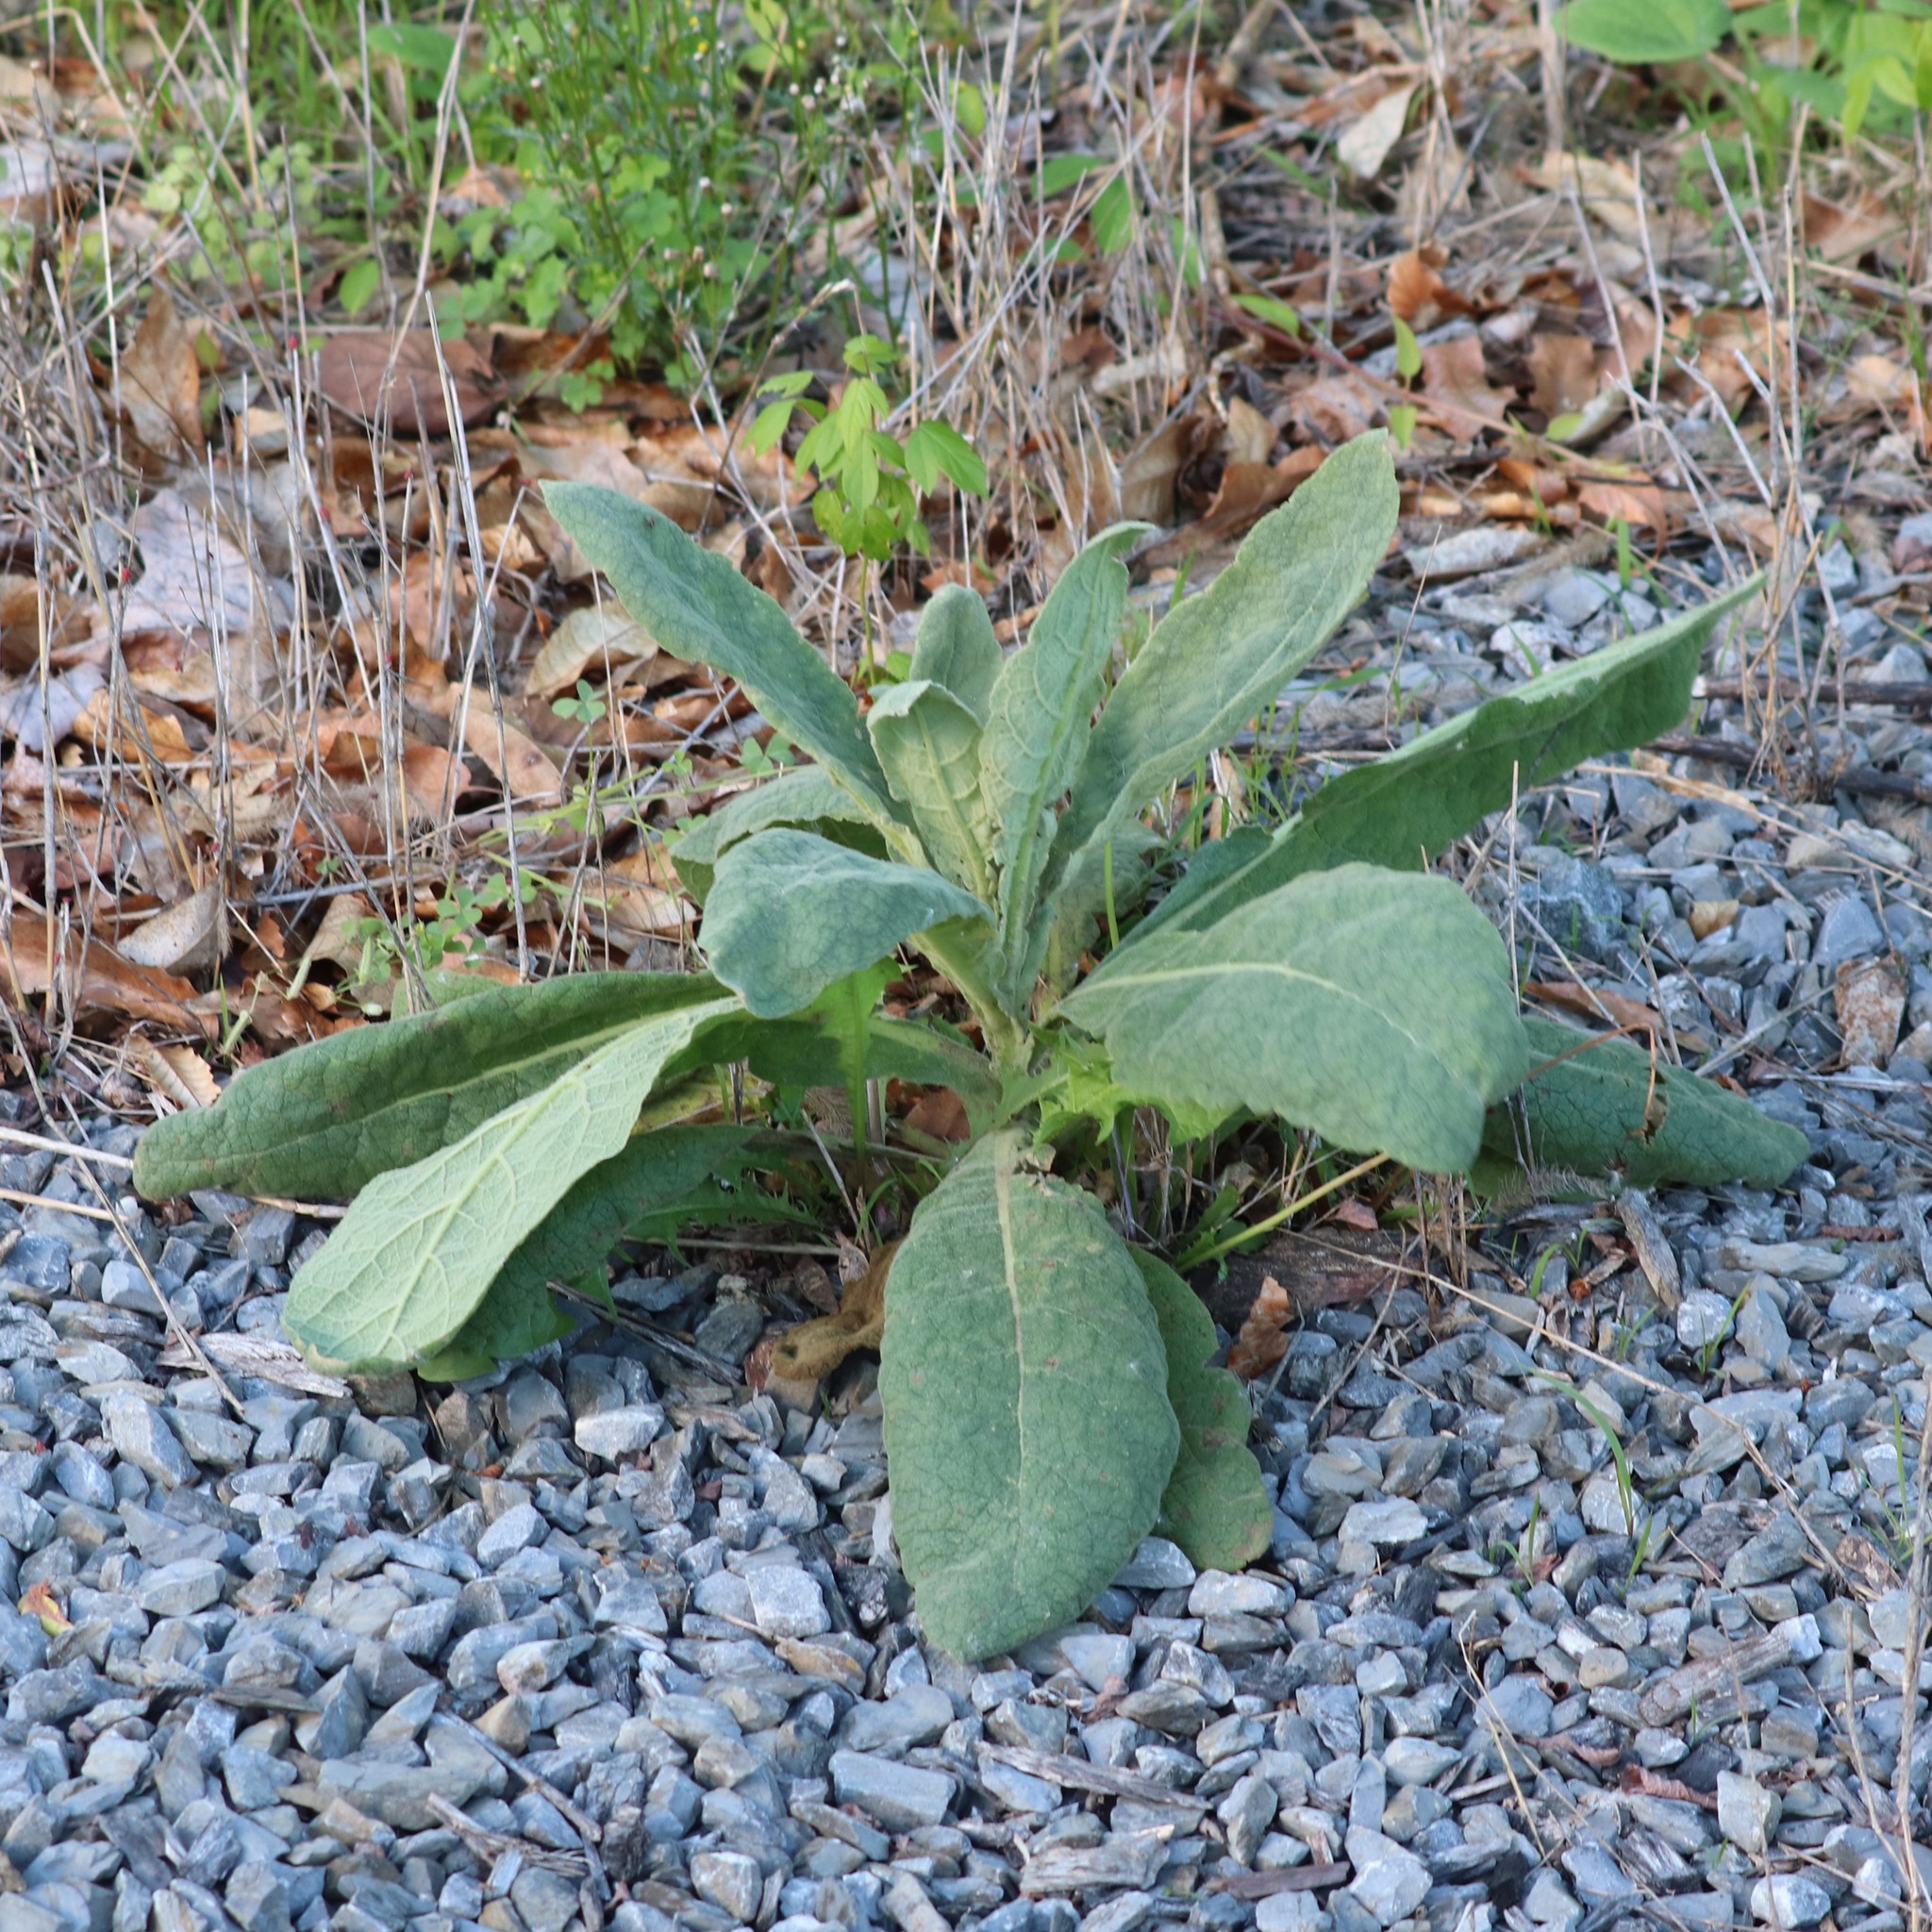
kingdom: Plantae
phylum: Tracheophyta
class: Magnoliopsida
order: Lamiales
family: Scrophulariaceae
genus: Verbascum
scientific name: Verbascum thapsus
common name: Common mullein
